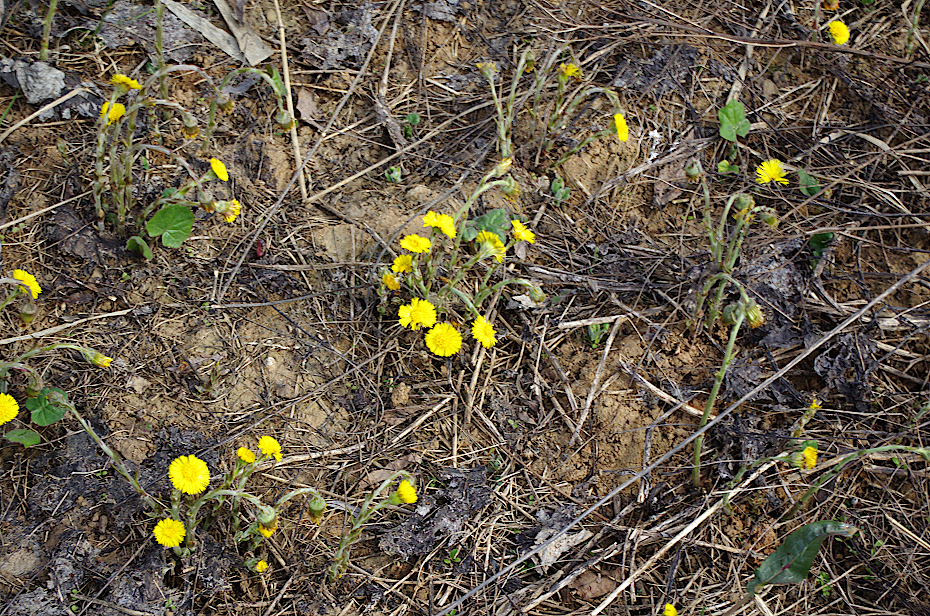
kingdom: Plantae
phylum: Tracheophyta
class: Magnoliopsida
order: Asterales
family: Asteraceae
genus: Tussilago
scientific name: Tussilago farfara
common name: Coltsfoot
